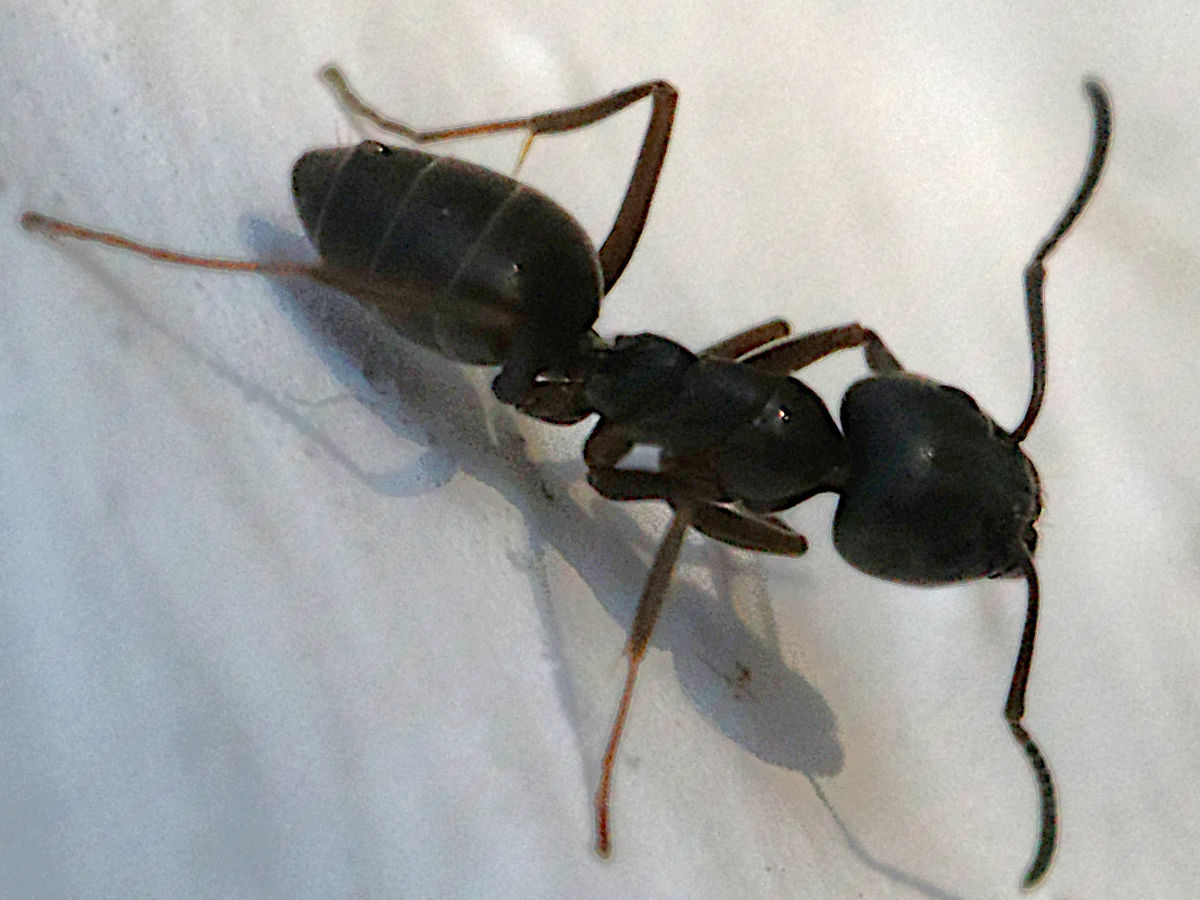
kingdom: Animalia
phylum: Arthropoda
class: Insecta
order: Hymenoptera
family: Formicidae
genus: Tapinoma
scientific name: Tapinoma
